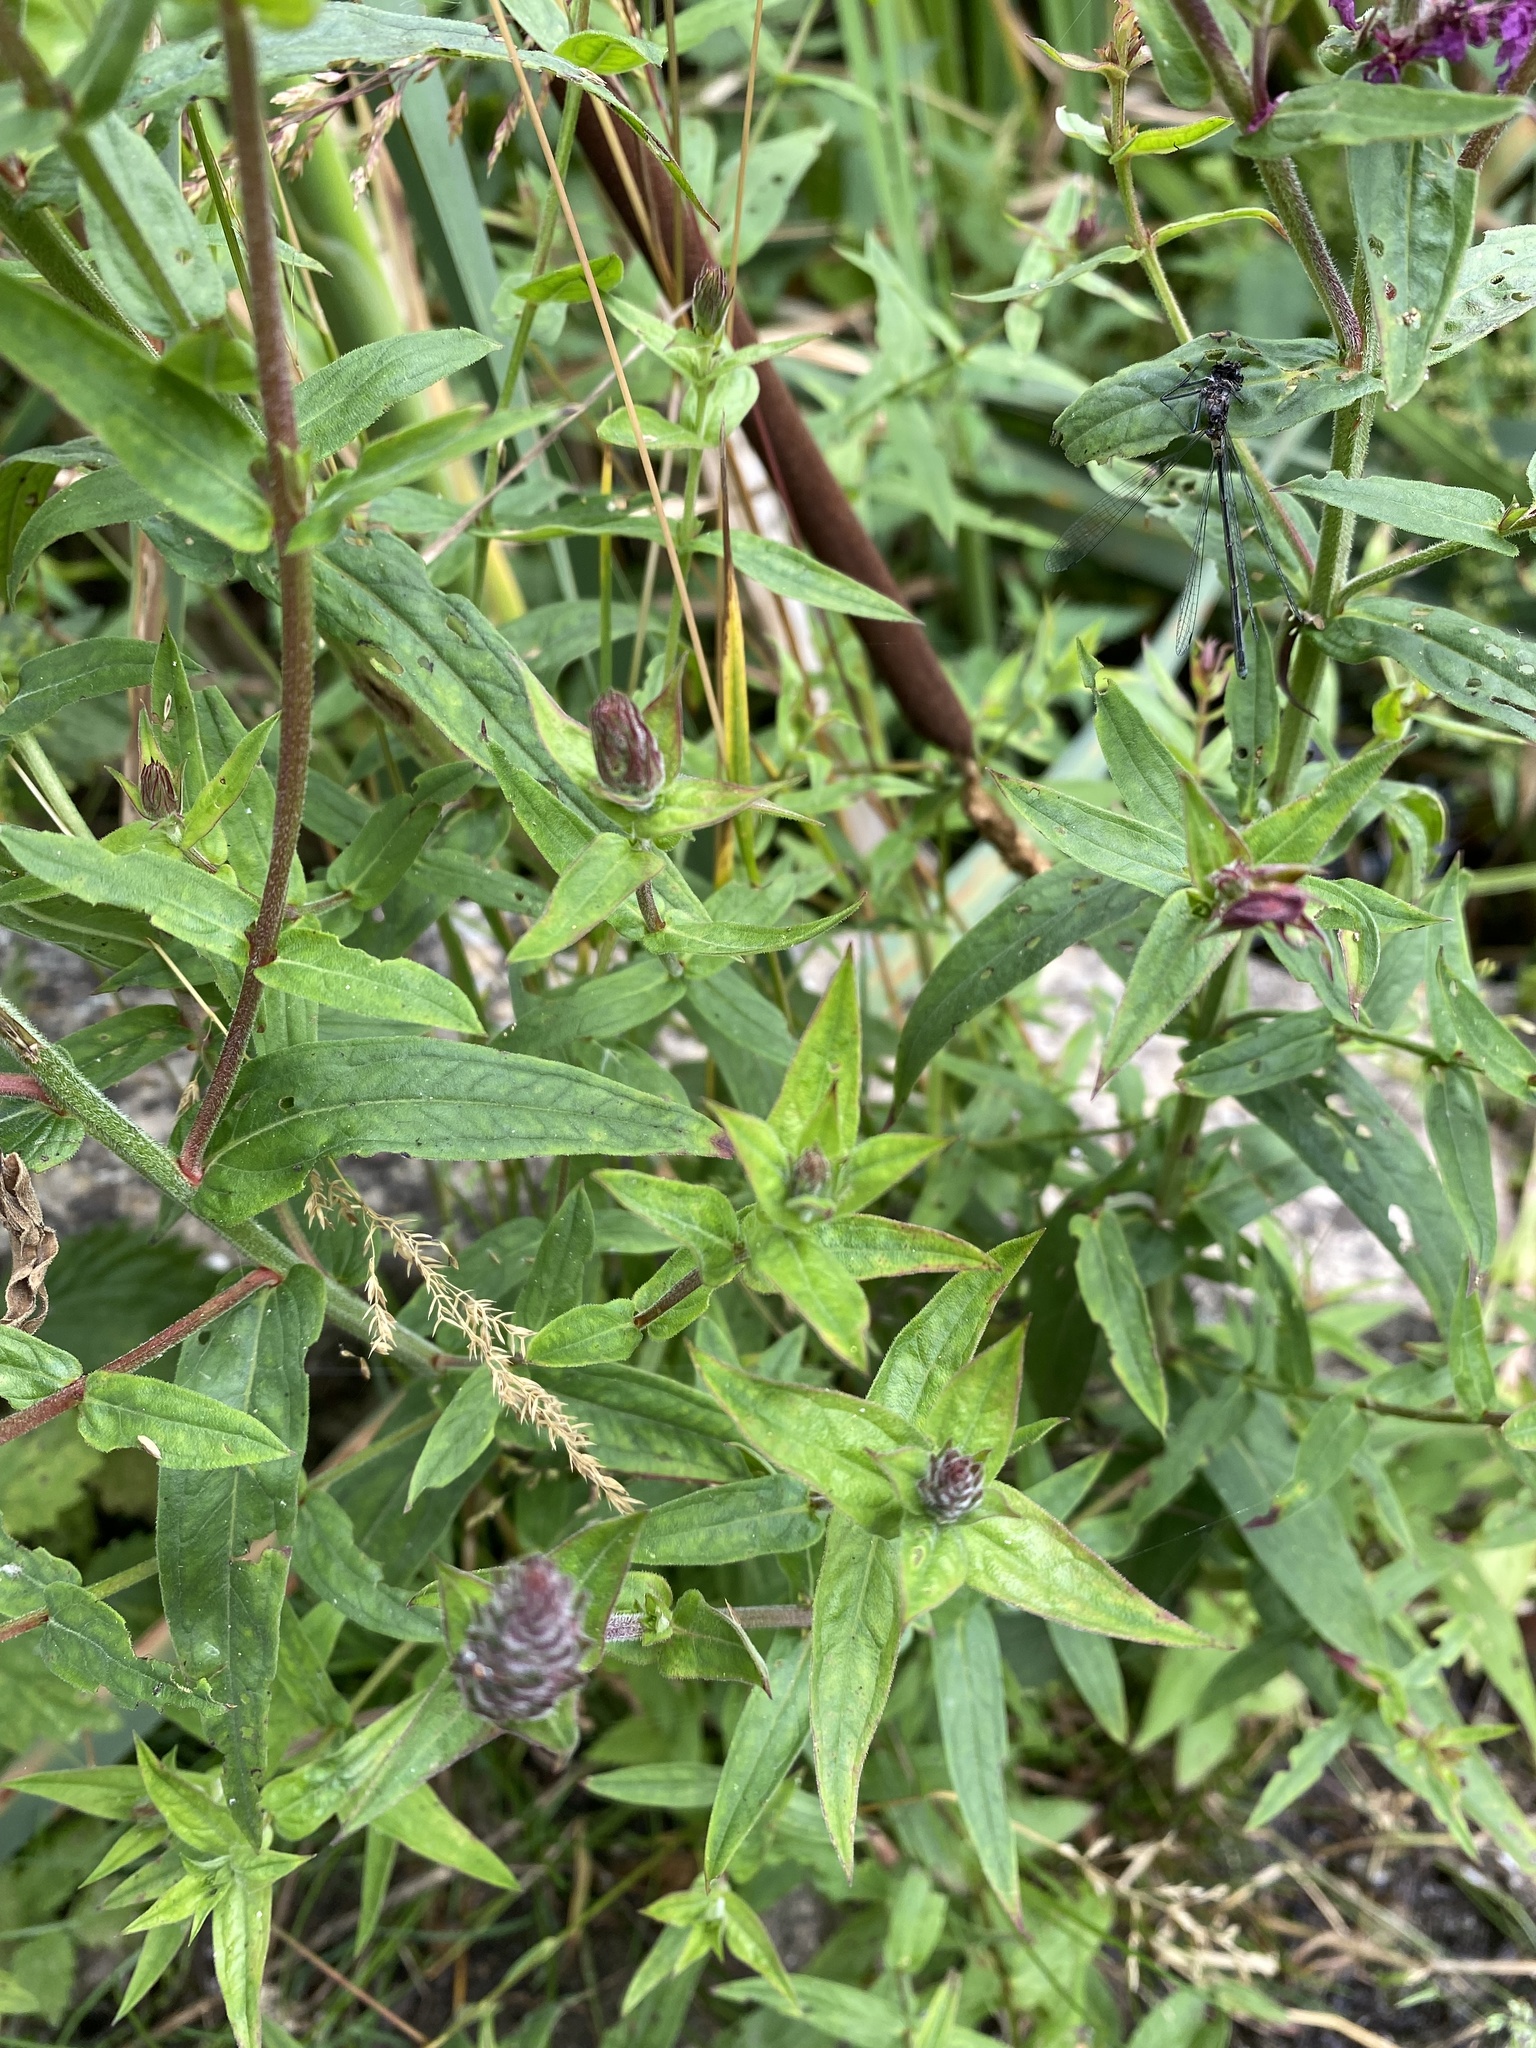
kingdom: Plantae
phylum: Tracheophyta
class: Magnoliopsida
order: Myrtales
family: Lythraceae
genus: Lythrum
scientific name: Lythrum salicaria
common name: Purple loosestrife
